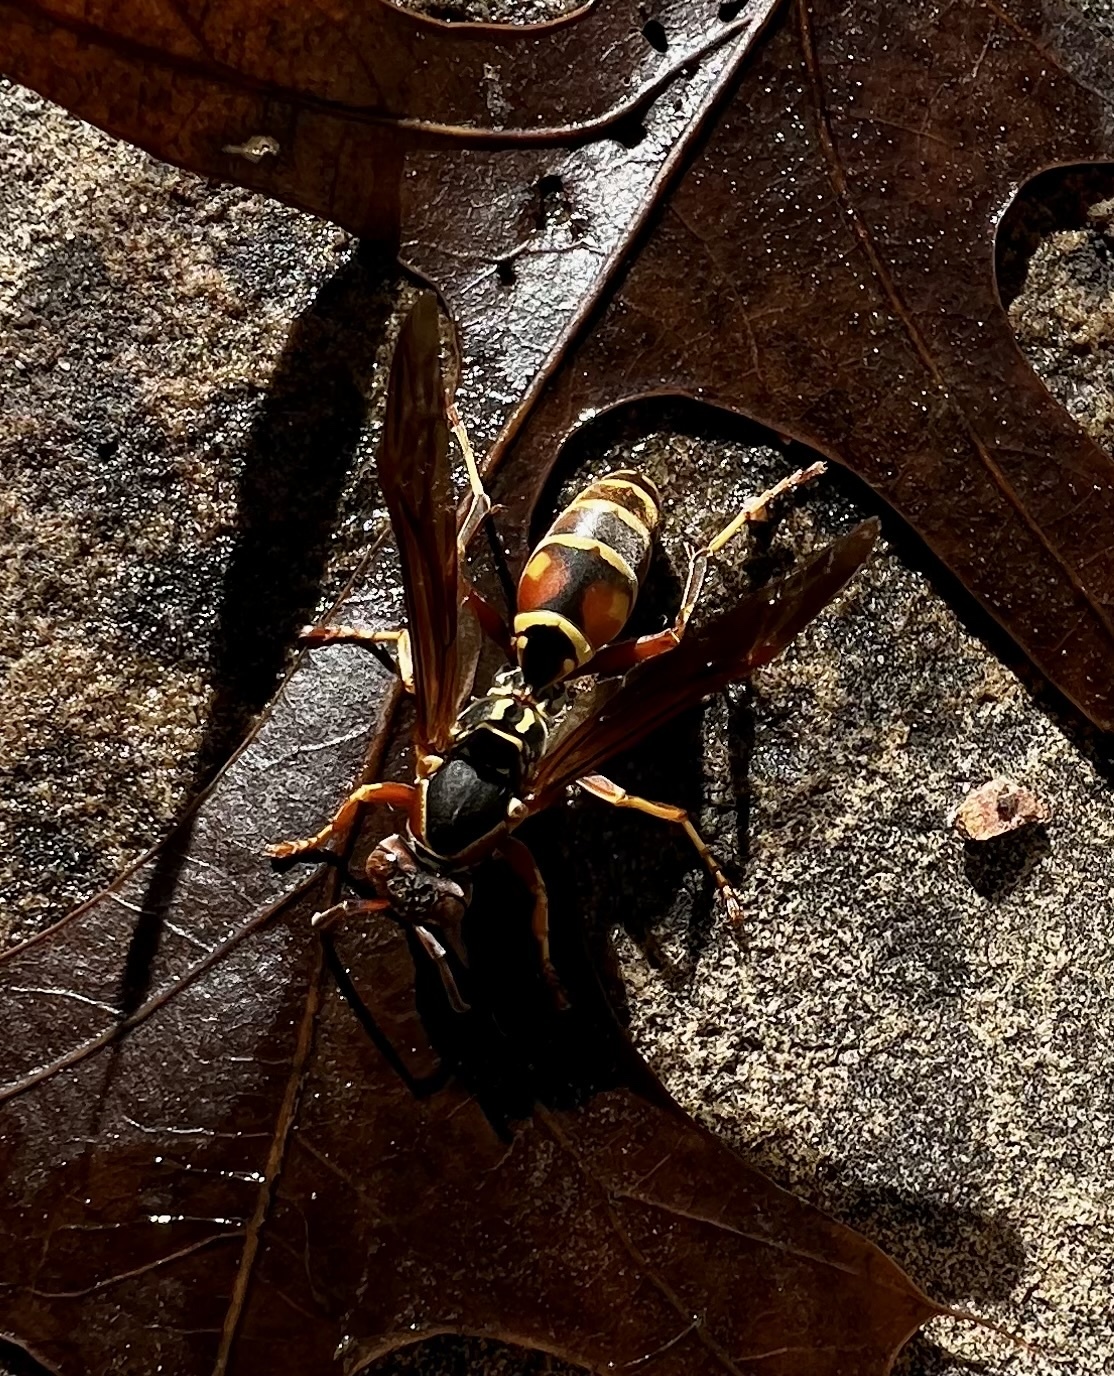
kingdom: Animalia
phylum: Arthropoda
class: Insecta
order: Hymenoptera
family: Eumenidae
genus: Polistes
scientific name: Polistes fuscatus
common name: Dark paper wasp
